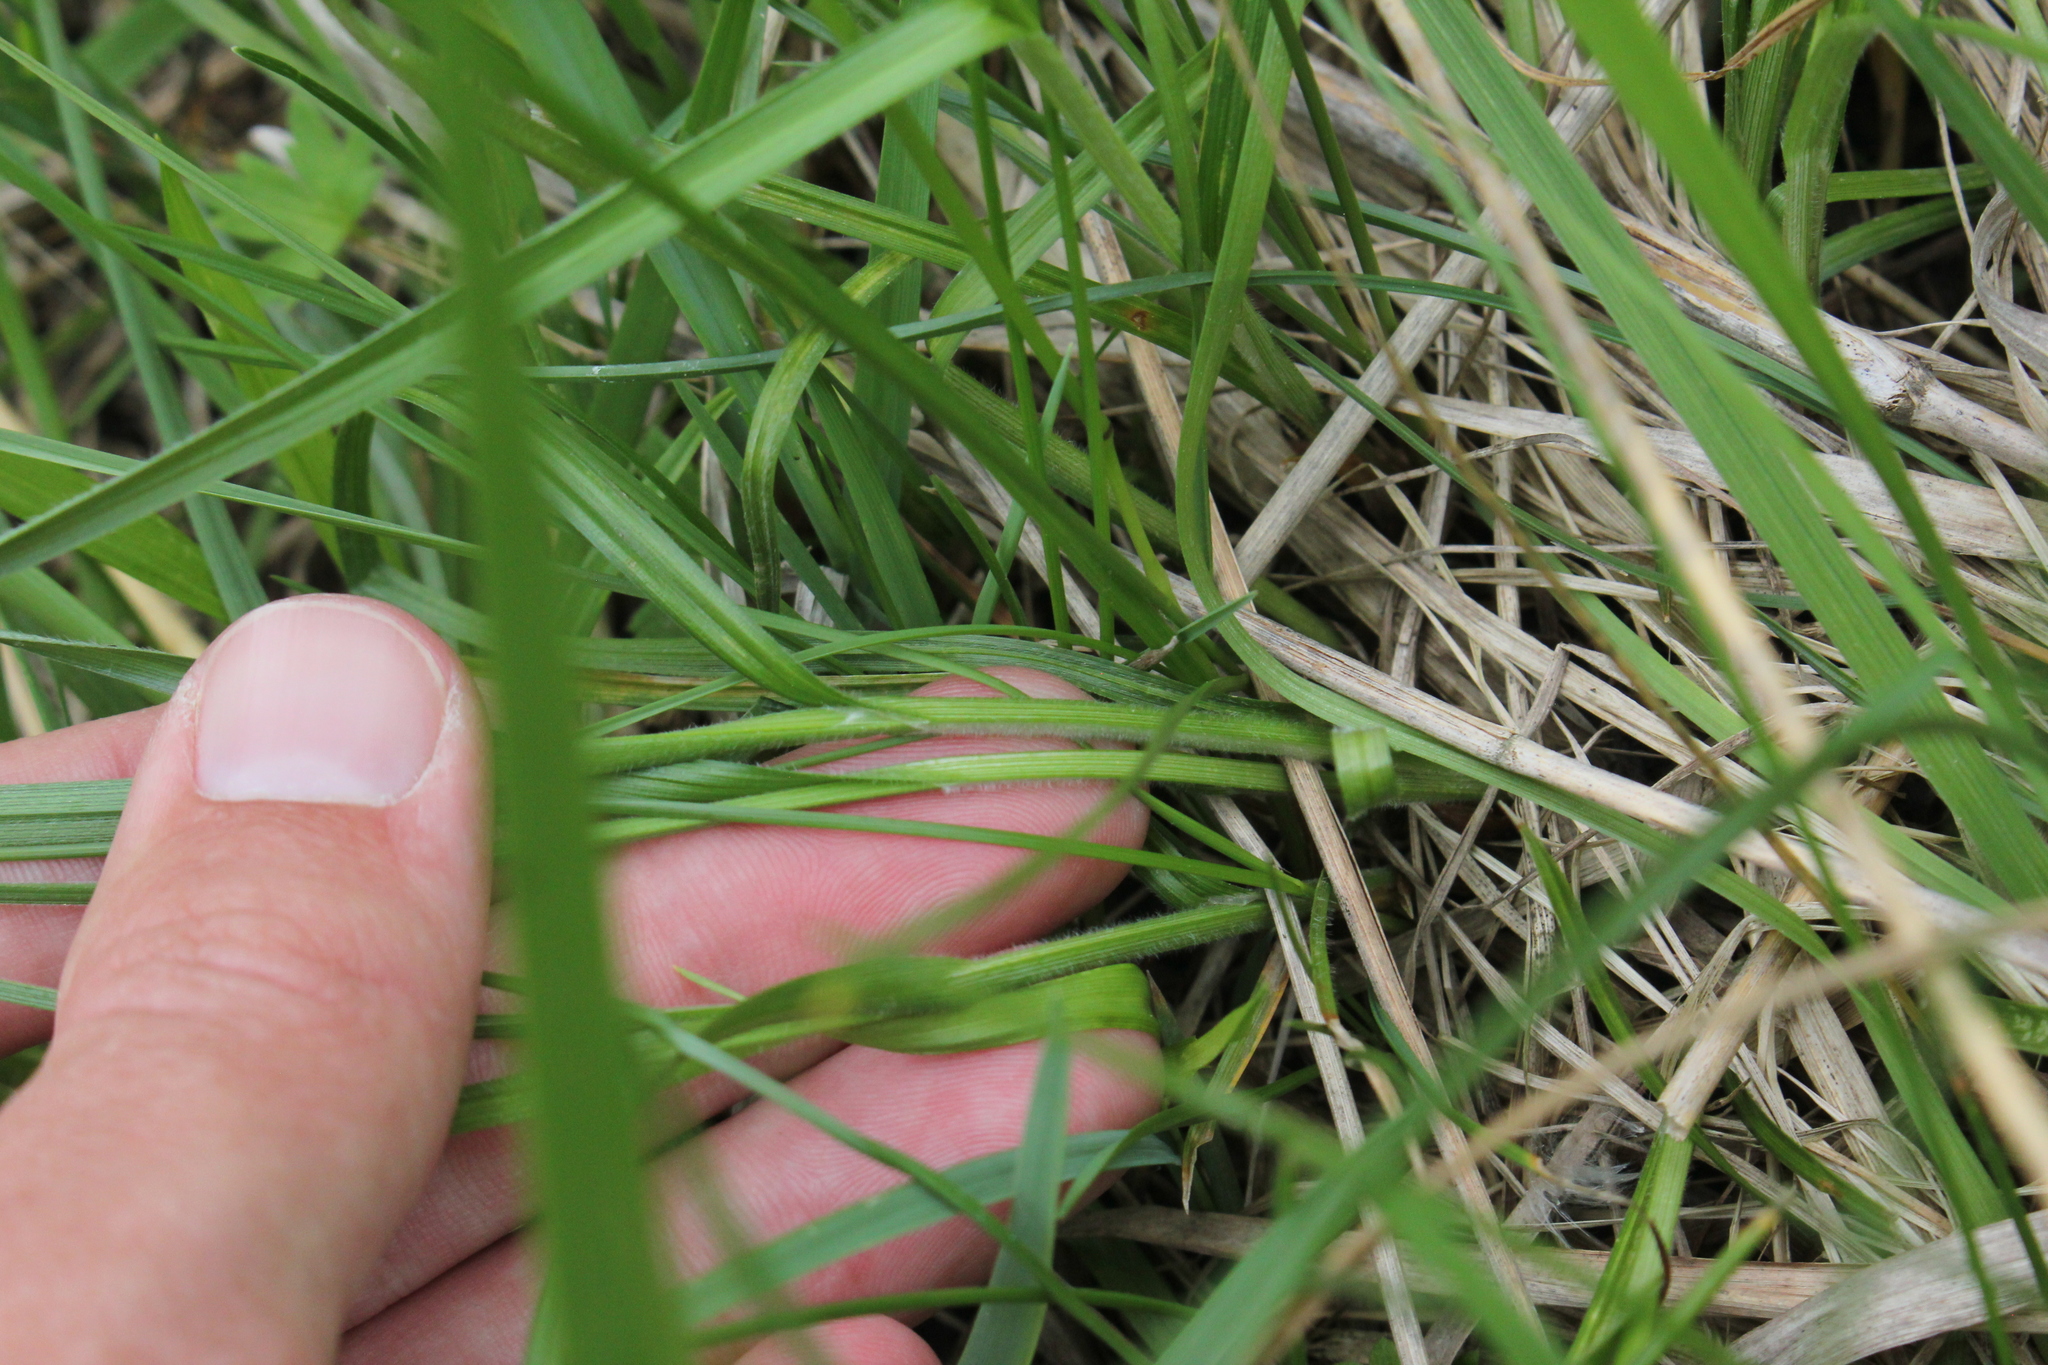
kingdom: Plantae
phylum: Tracheophyta
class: Liliopsida
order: Poales
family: Cyperaceae
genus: Carex
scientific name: Carex pallescens
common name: Pale sedge
